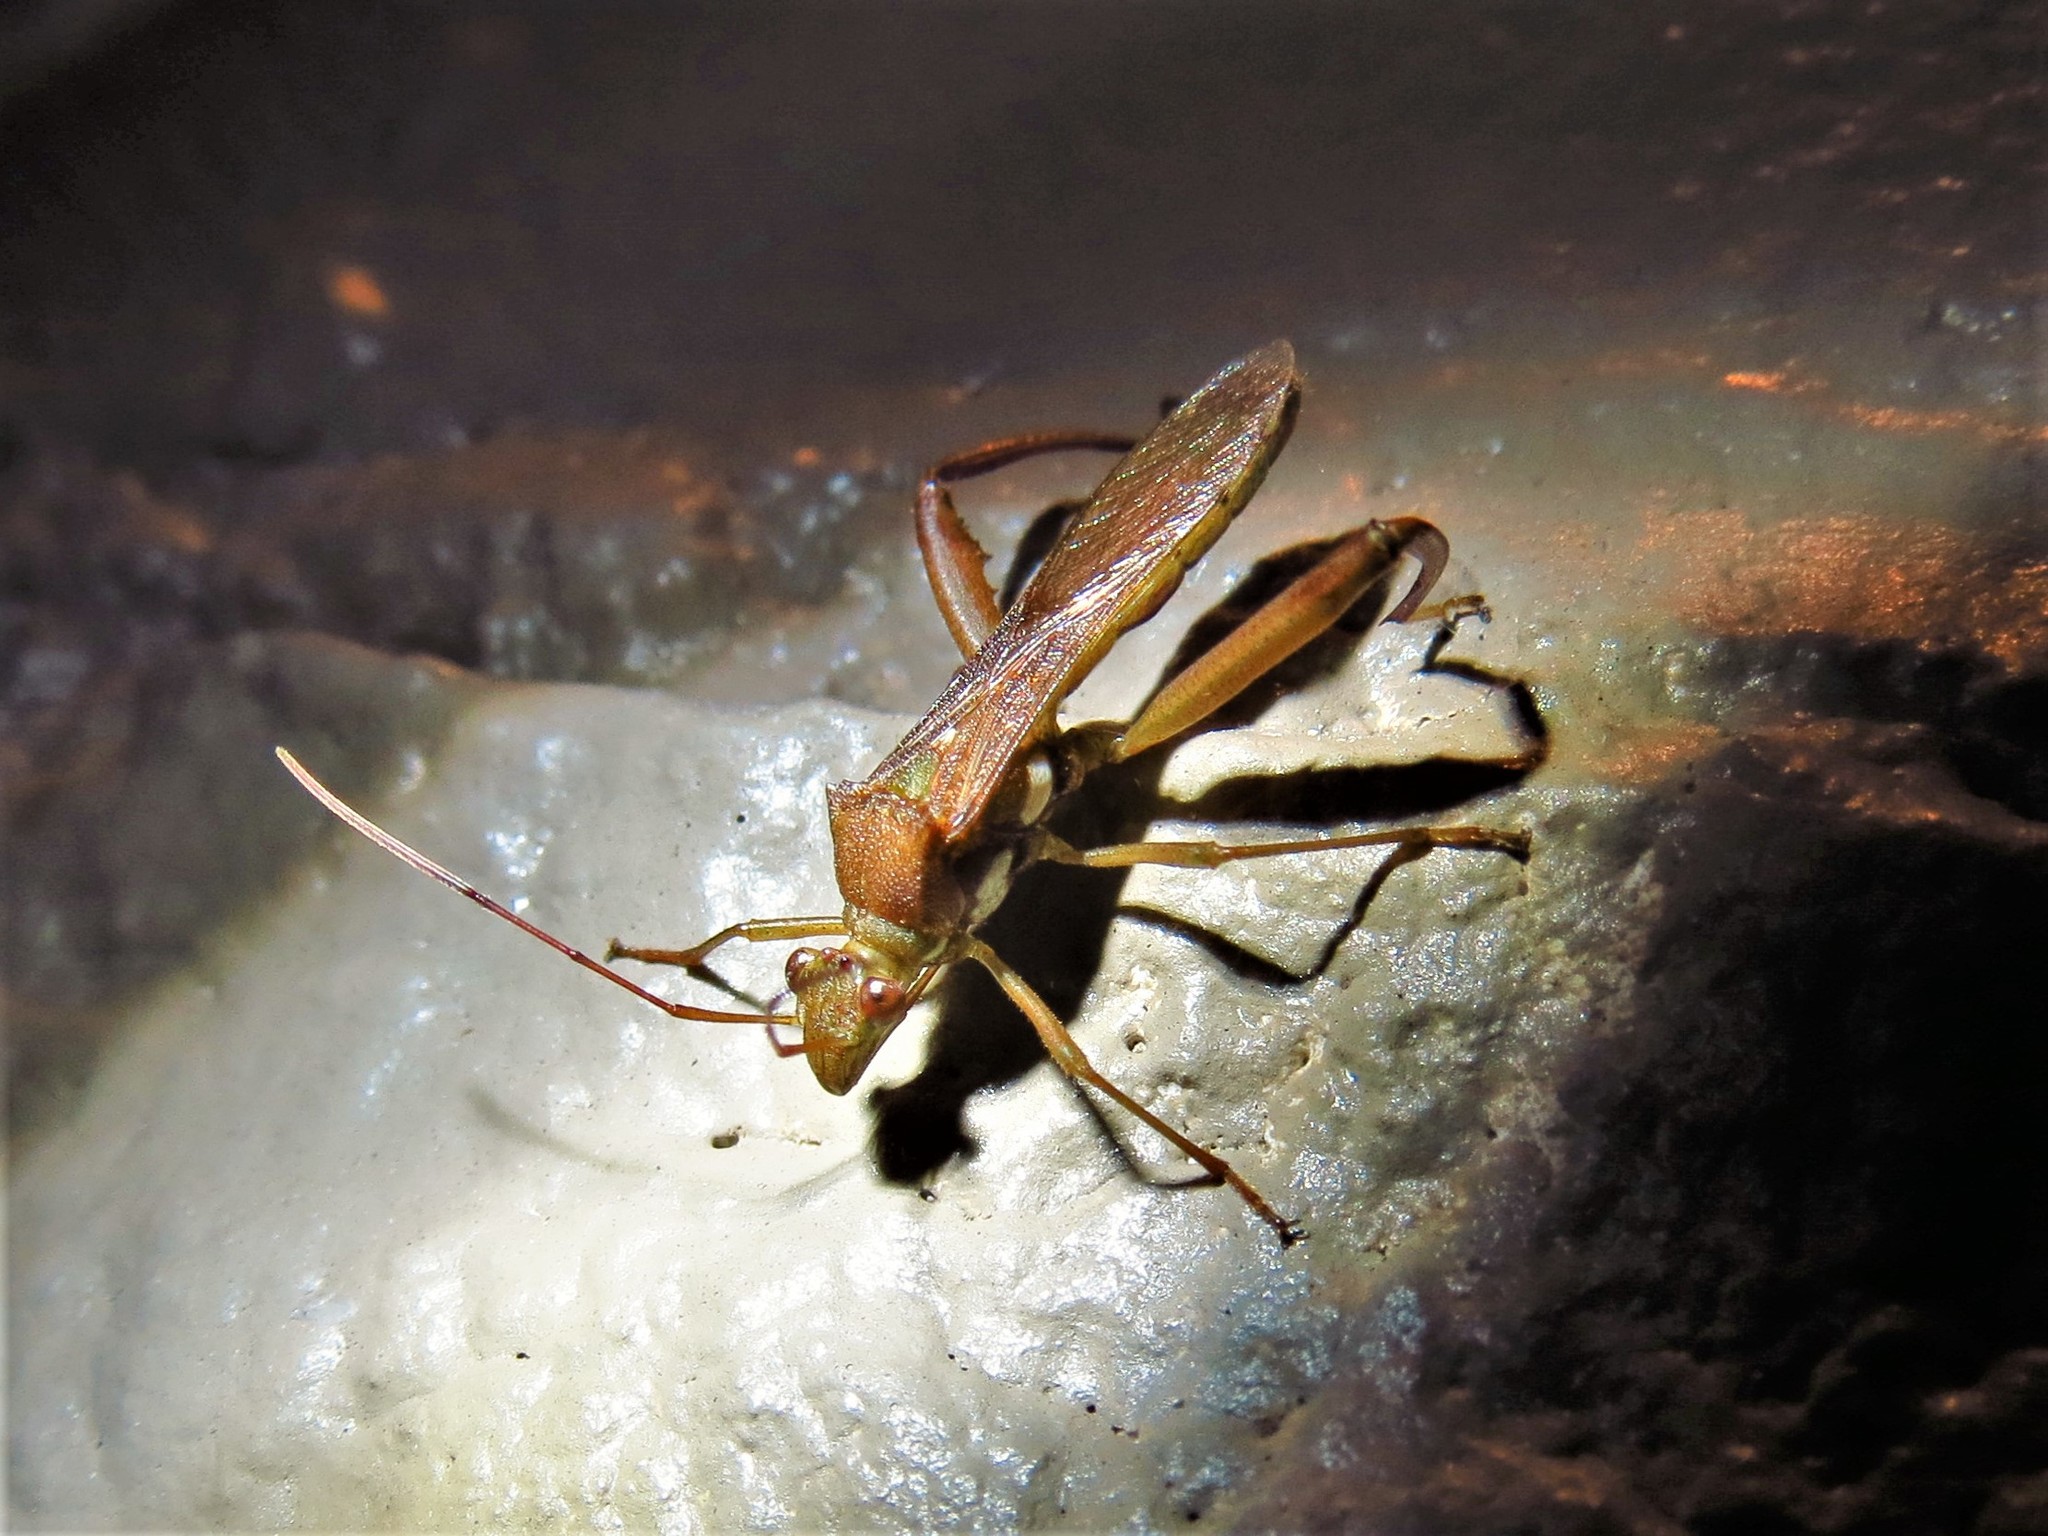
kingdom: Animalia
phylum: Arthropoda
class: Insecta
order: Hemiptera
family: Alydidae
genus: Hyalymenus
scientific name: Hyalymenus tarsatus
